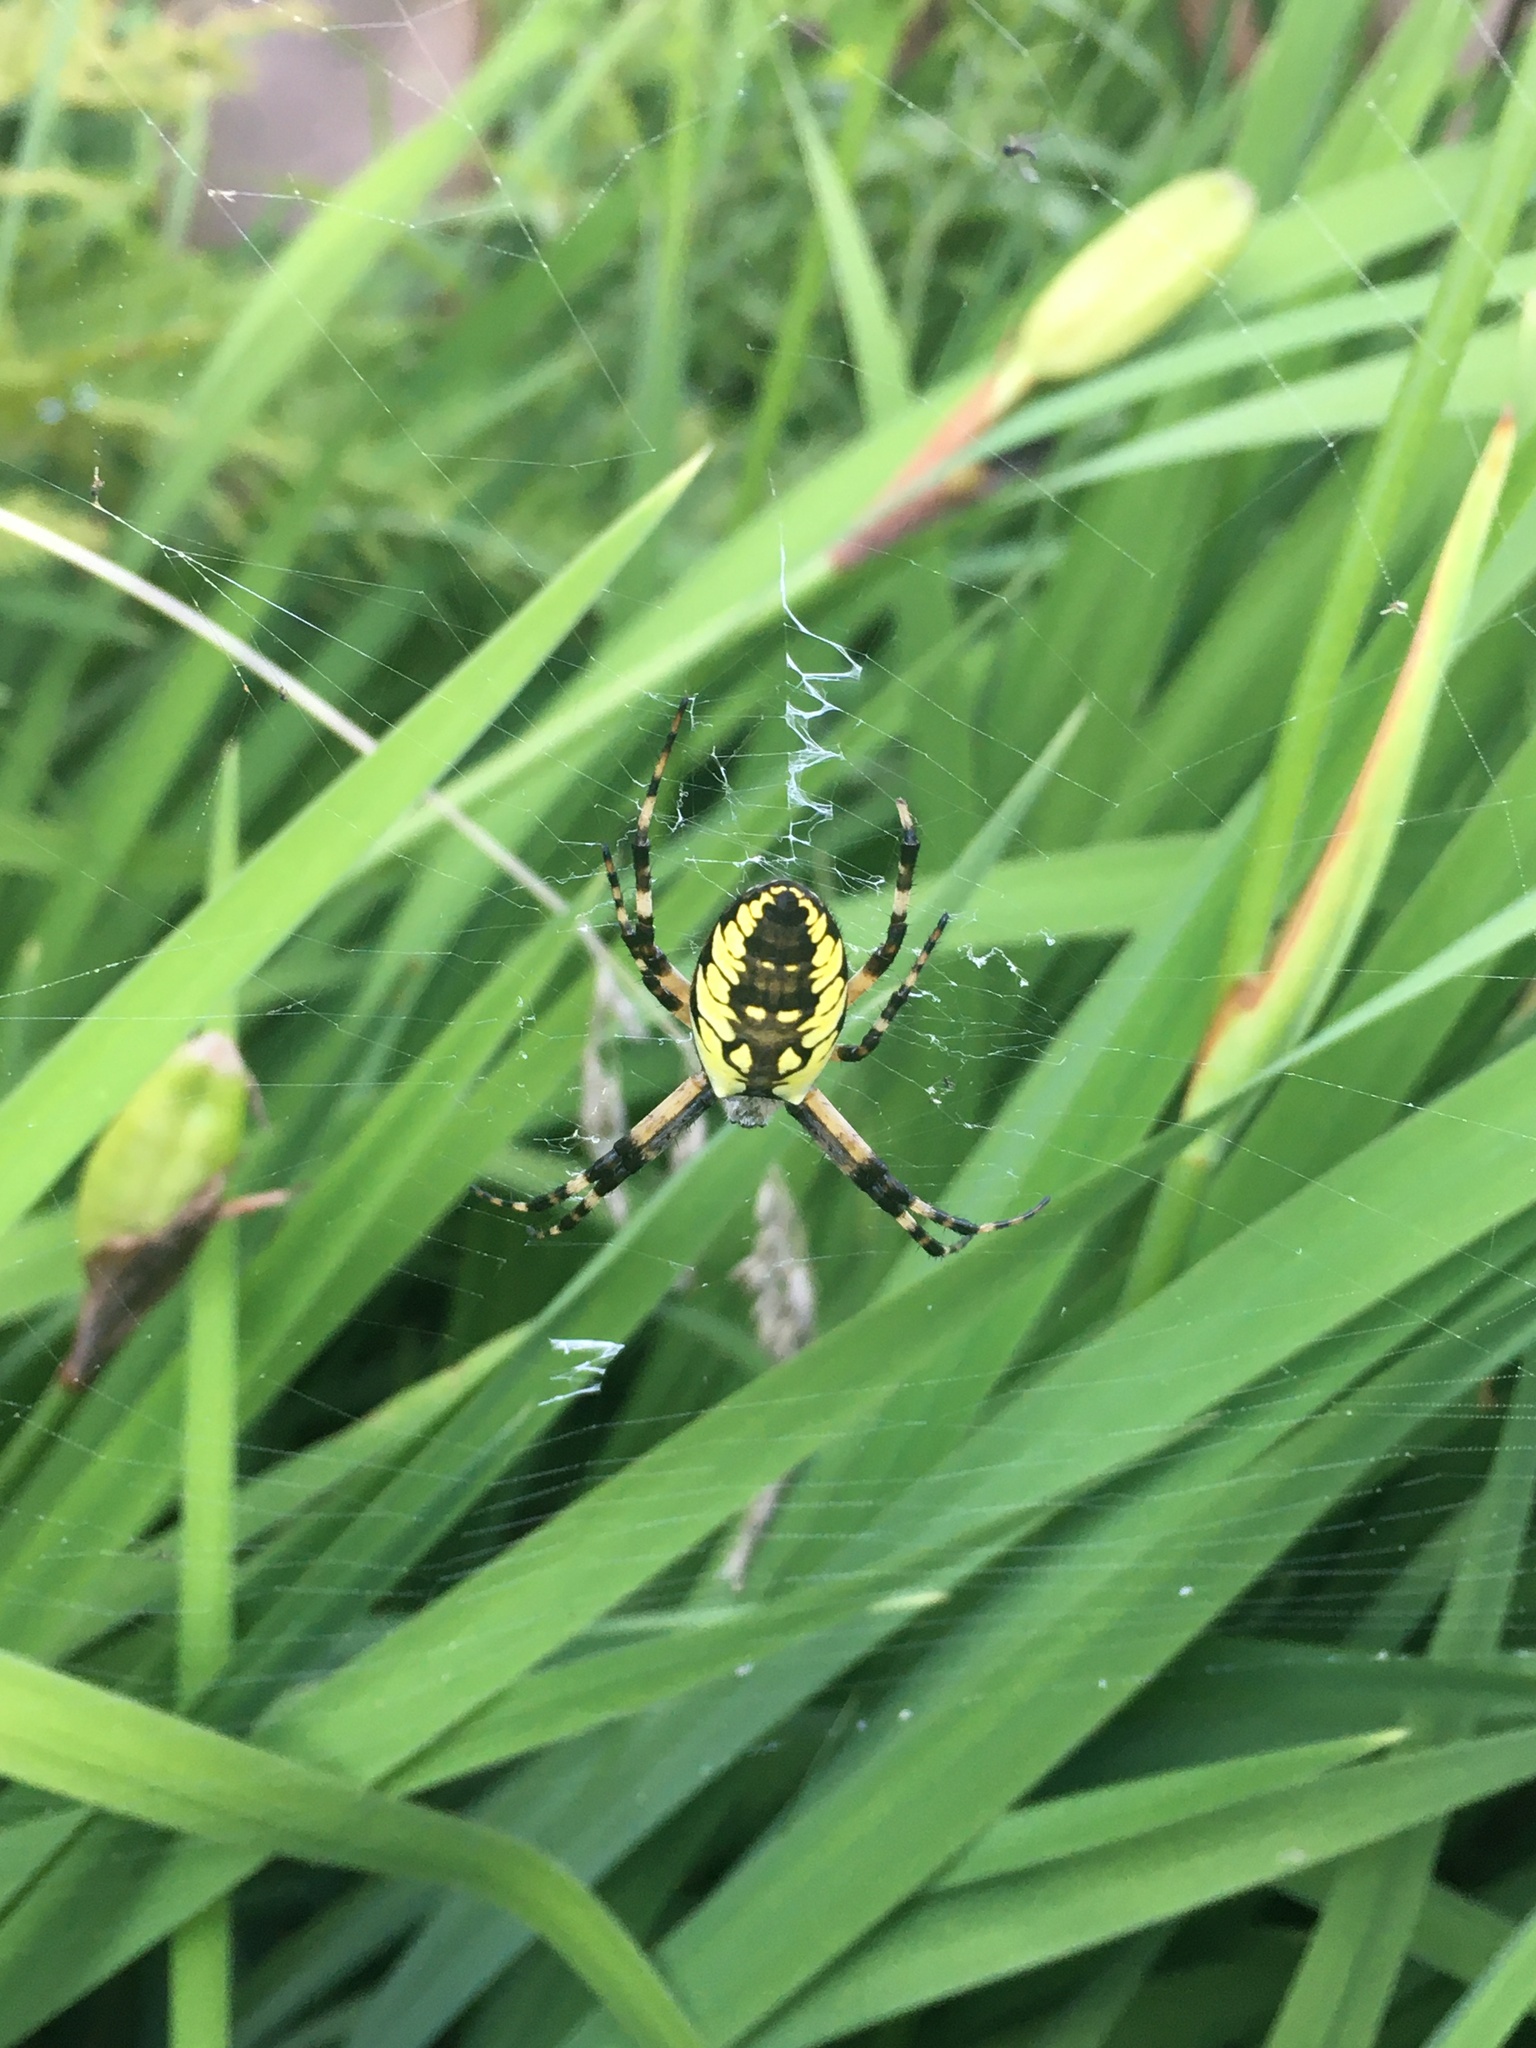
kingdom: Animalia
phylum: Arthropoda
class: Arachnida
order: Araneae
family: Araneidae
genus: Argiope
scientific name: Argiope aurantia
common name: Orb weavers
